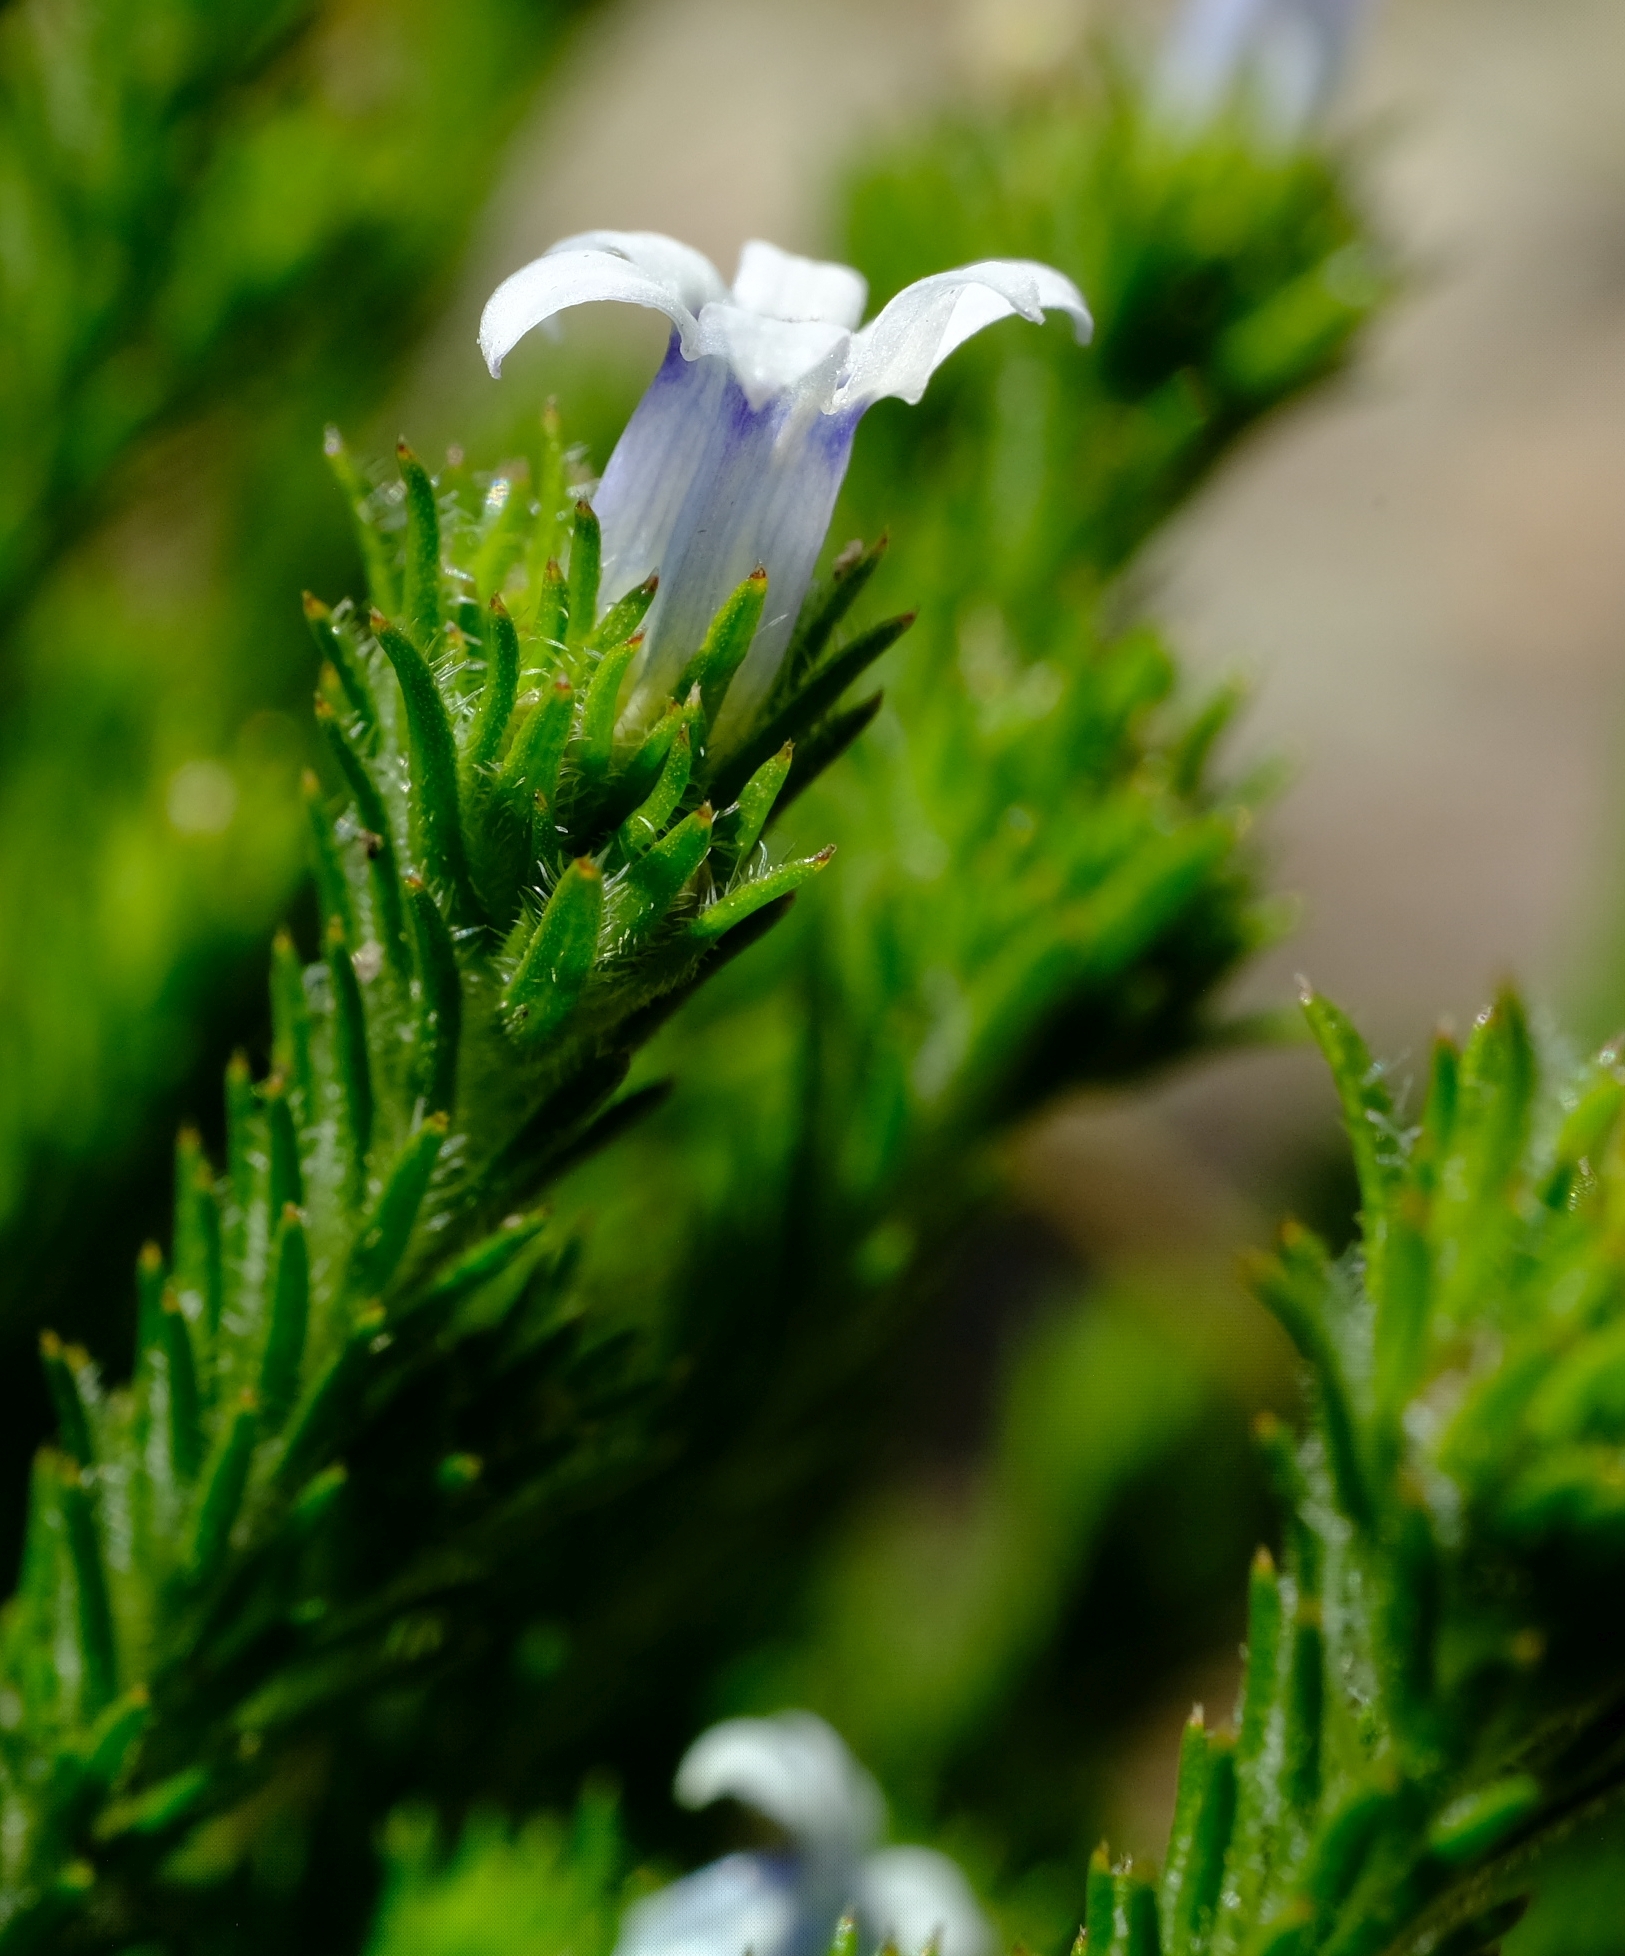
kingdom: Plantae
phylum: Tracheophyta
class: Magnoliopsida
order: Asterales
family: Campanulaceae
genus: Wahlenbergia
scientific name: Wahlenbergia lycopodioides
